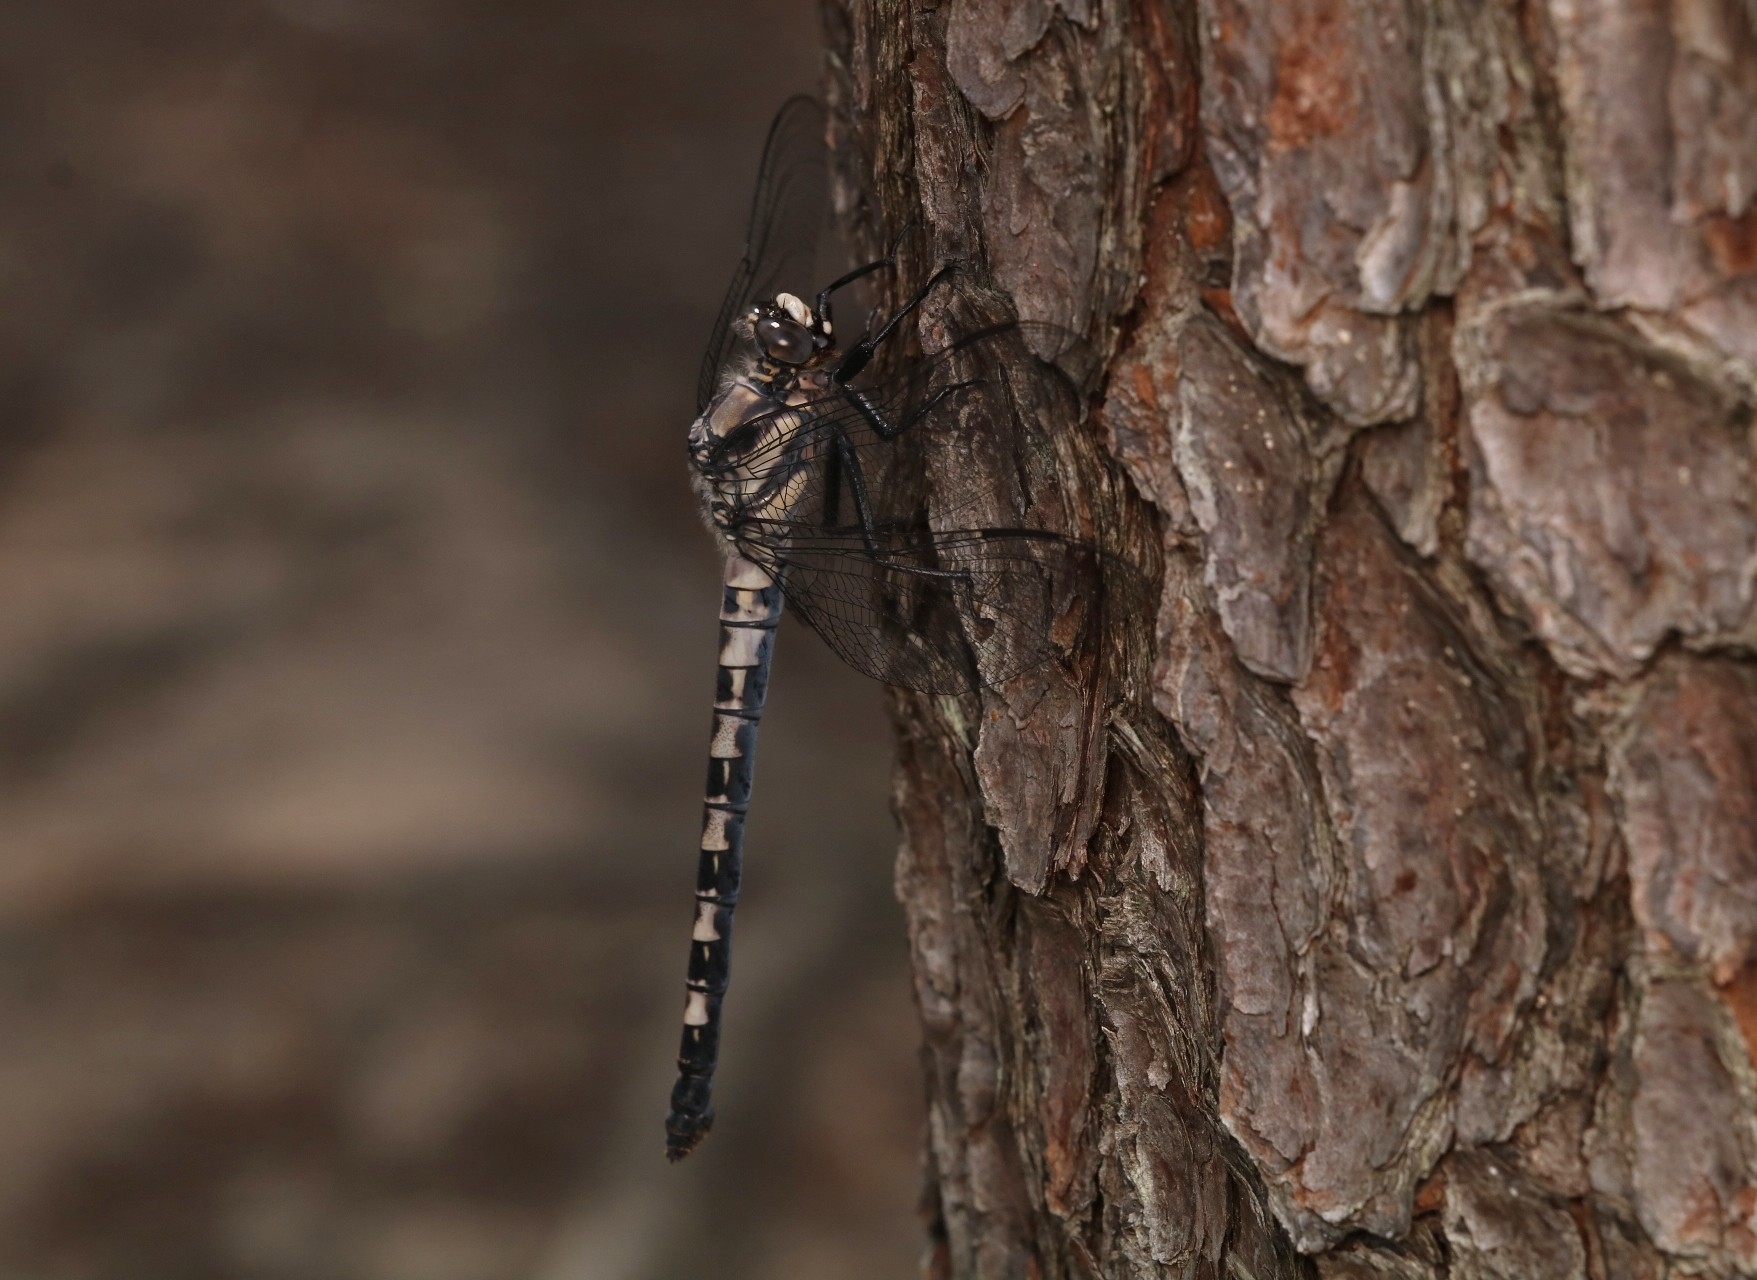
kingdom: Animalia
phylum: Arthropoda
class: Insecta
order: Odonata
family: Petaluridae
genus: Tachopteryx
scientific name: Tachopteryx thoreyi
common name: Gray petaltail
